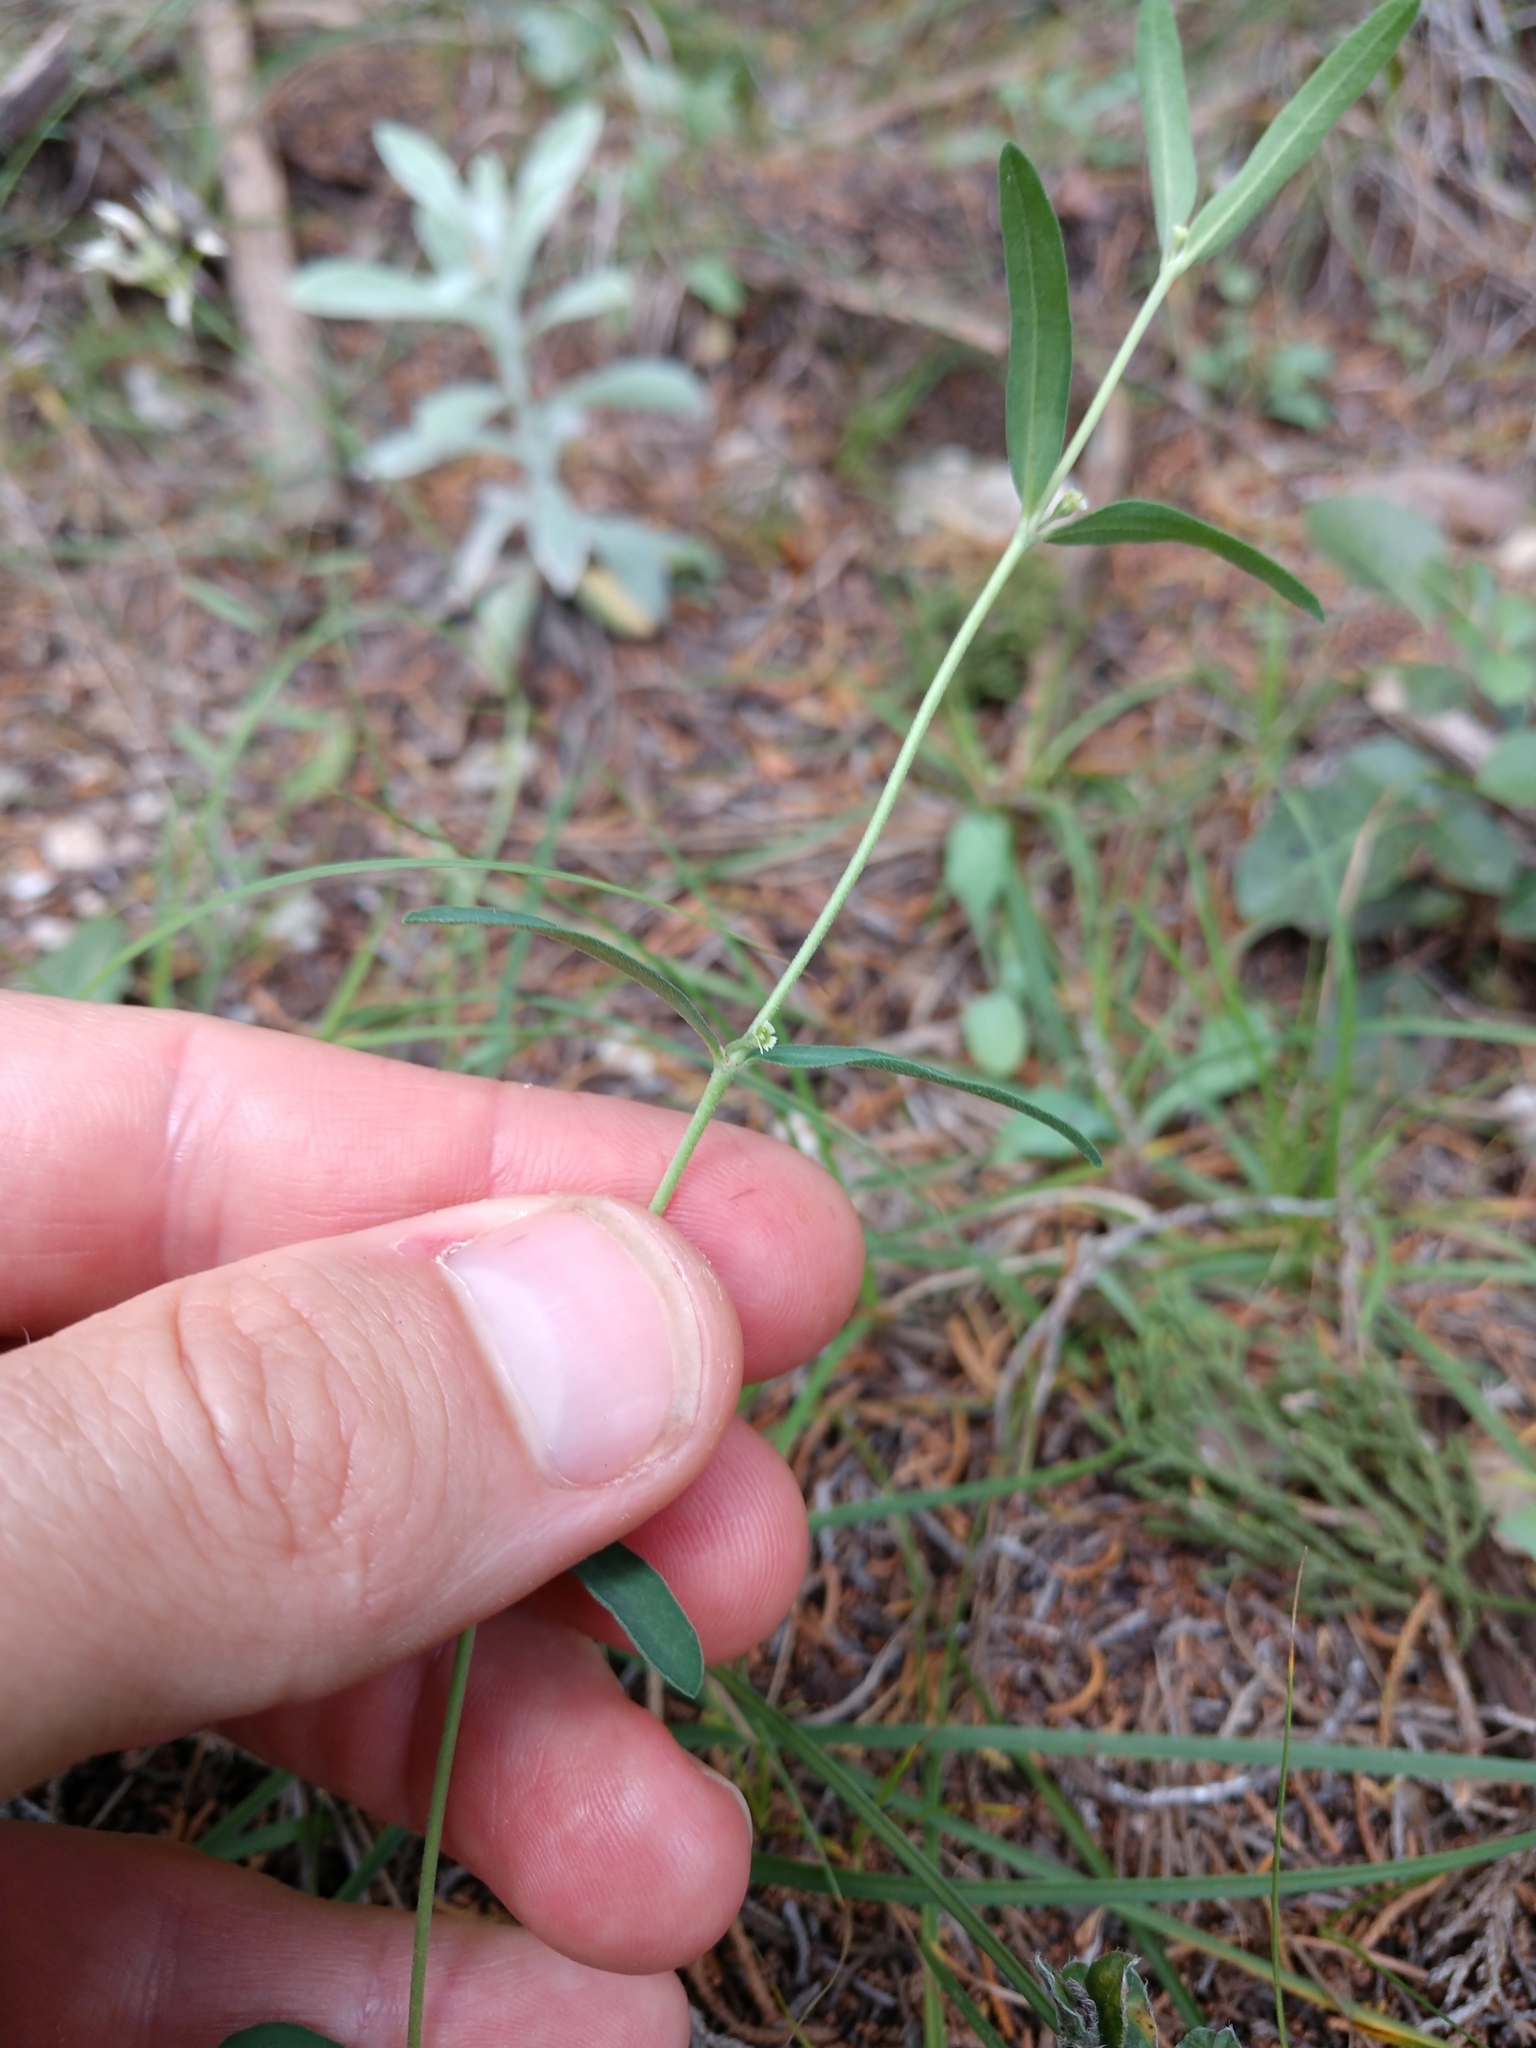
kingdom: Plantae
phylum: Tracheophyta
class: Magnoliopsida
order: Malpighiales
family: Euphorbiaceae
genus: Euphorbia
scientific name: Euphorbia angusta
